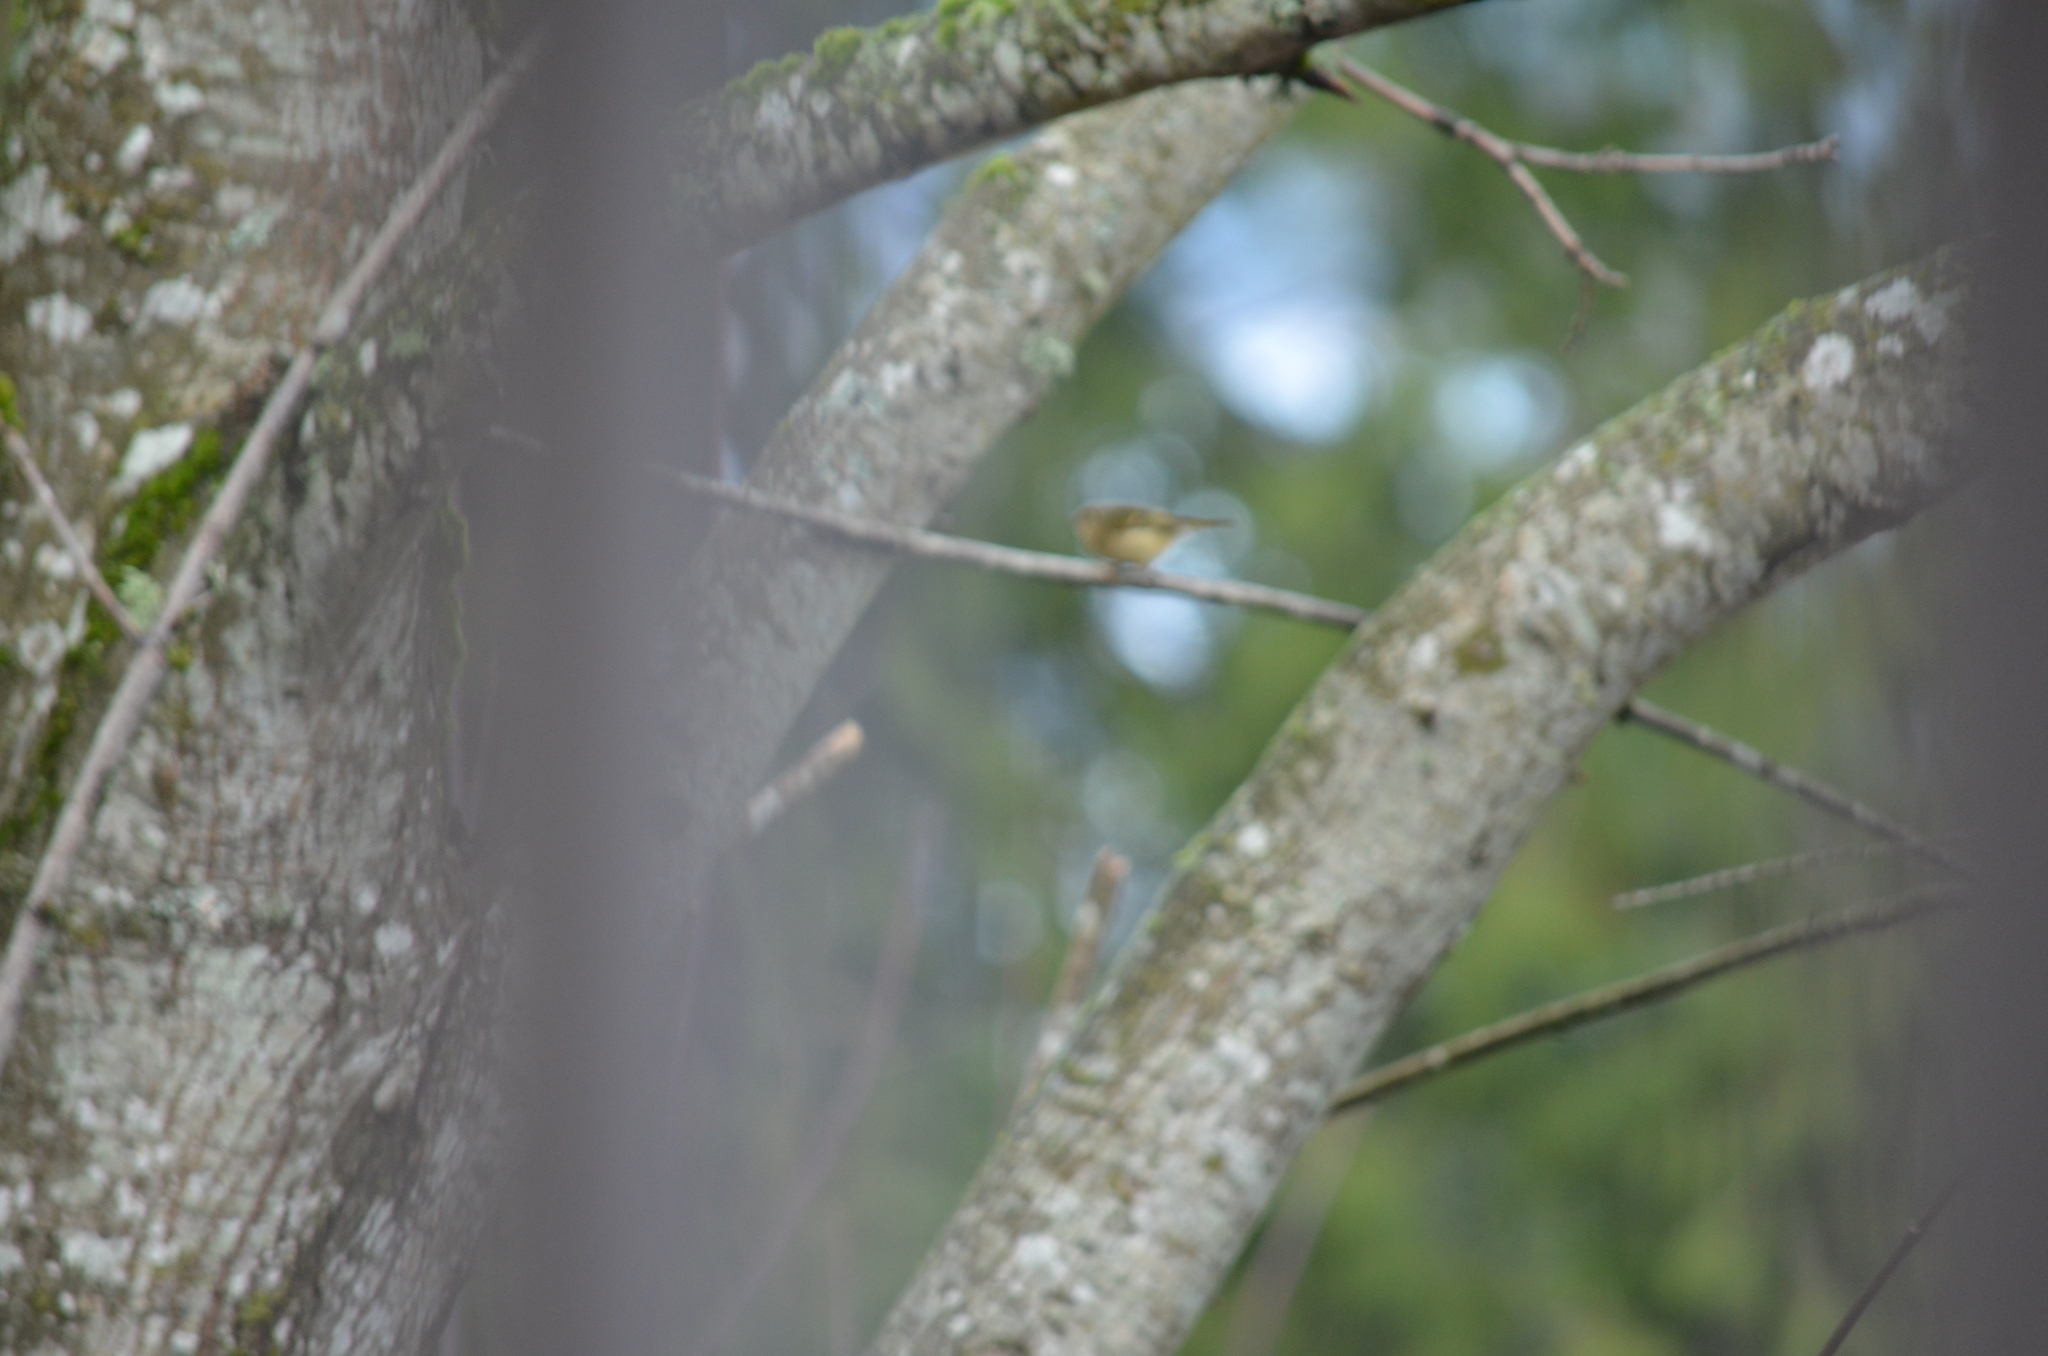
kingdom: Animalia
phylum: Chordata
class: Aves
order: Passeriformes
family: Regulidae
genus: Regulus
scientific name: Regulus calendula
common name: Ruby-crowned kinglet
